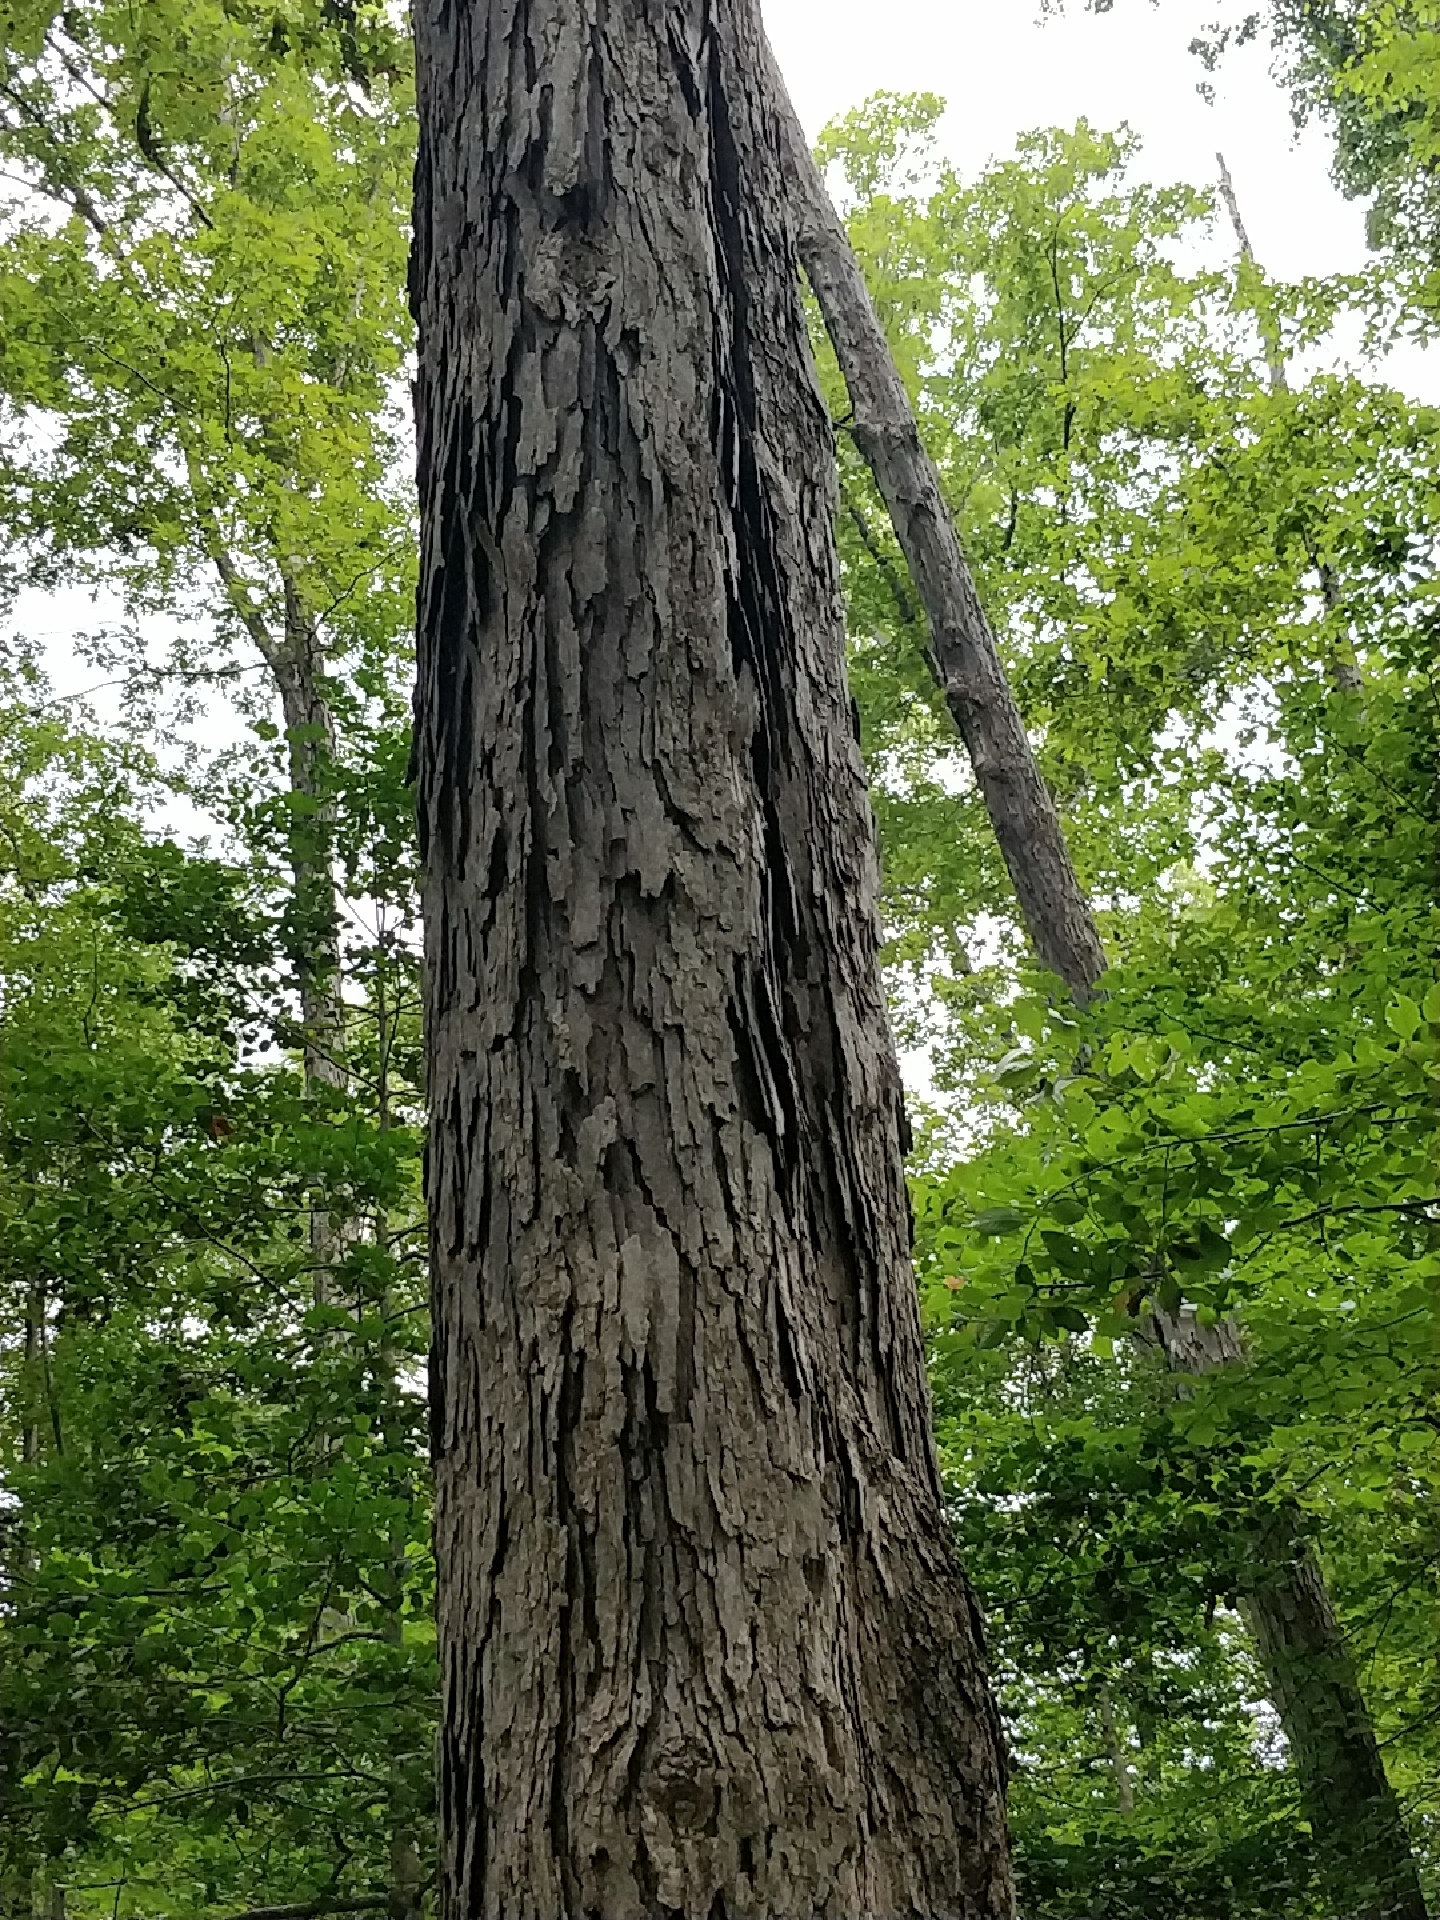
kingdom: Plantae
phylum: Tracheophyta
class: Magnoliopsida
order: Fagales
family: Fagaceae
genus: Quercus
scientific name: Quercus alba
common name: White oak
